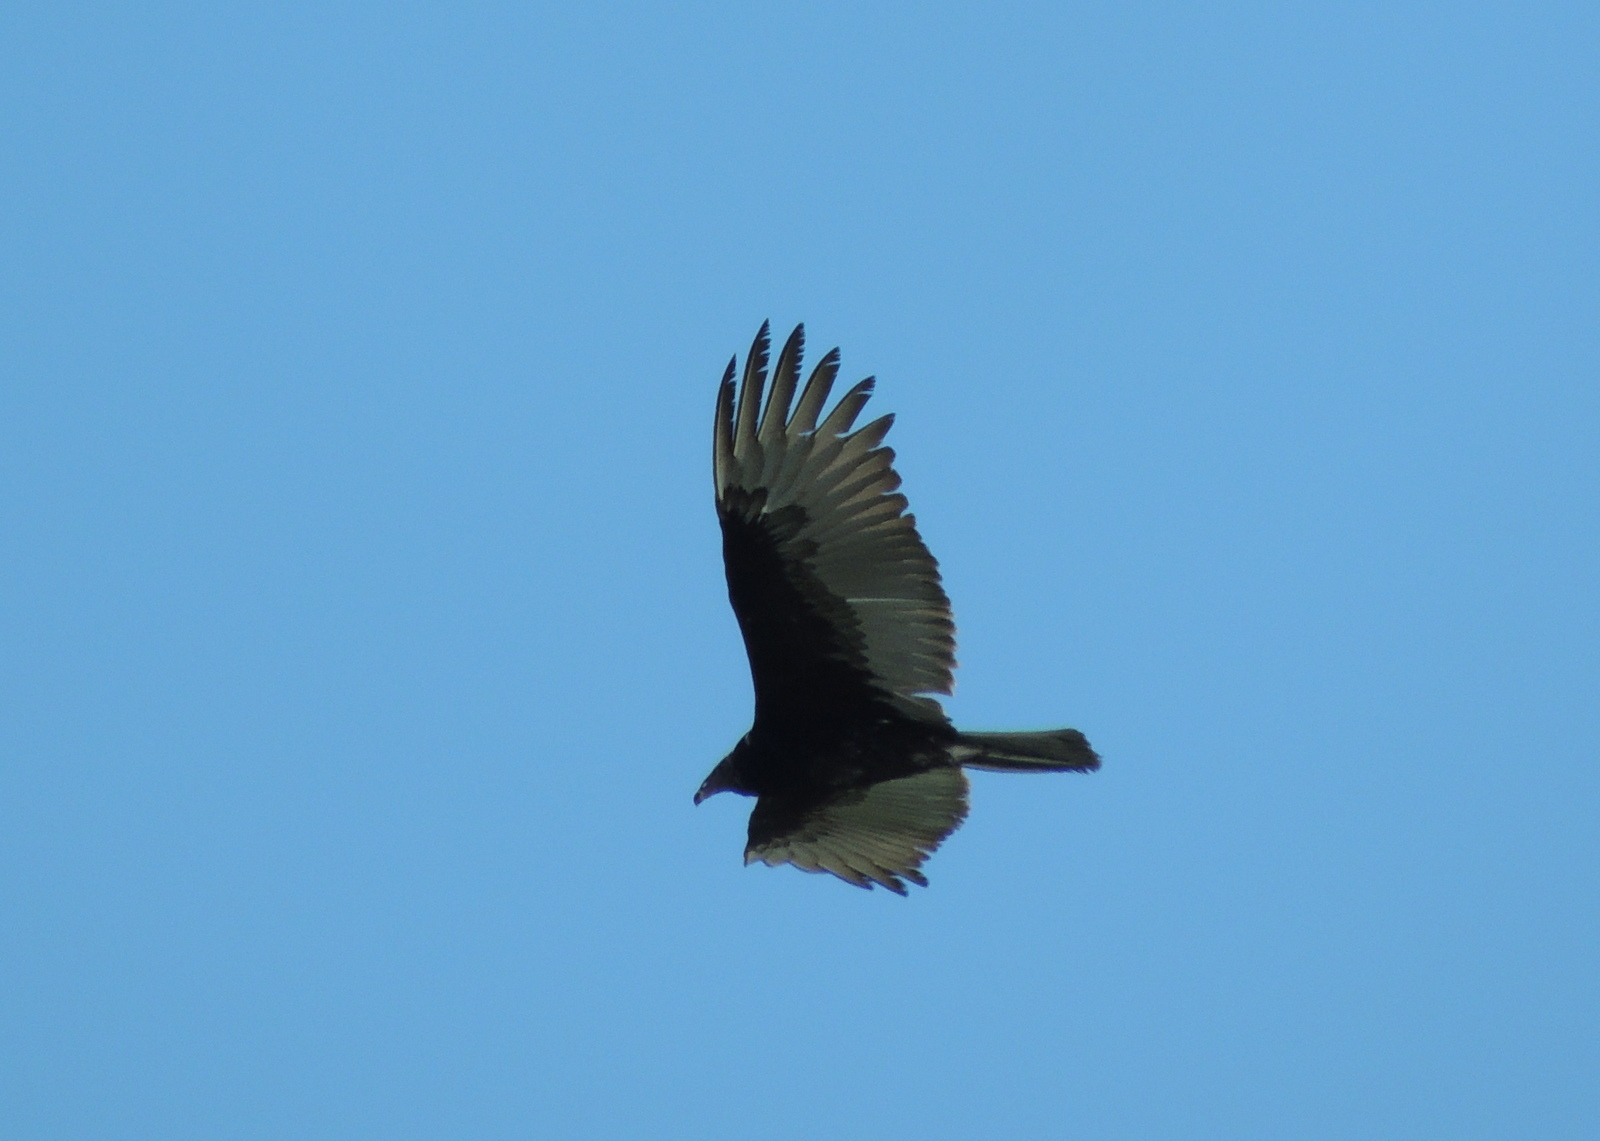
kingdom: Animalia
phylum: Chordata
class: Aves
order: Accipitriformes
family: Cathartidae
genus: Cathartes
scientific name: Cathartes aura
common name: Turkey vulture
